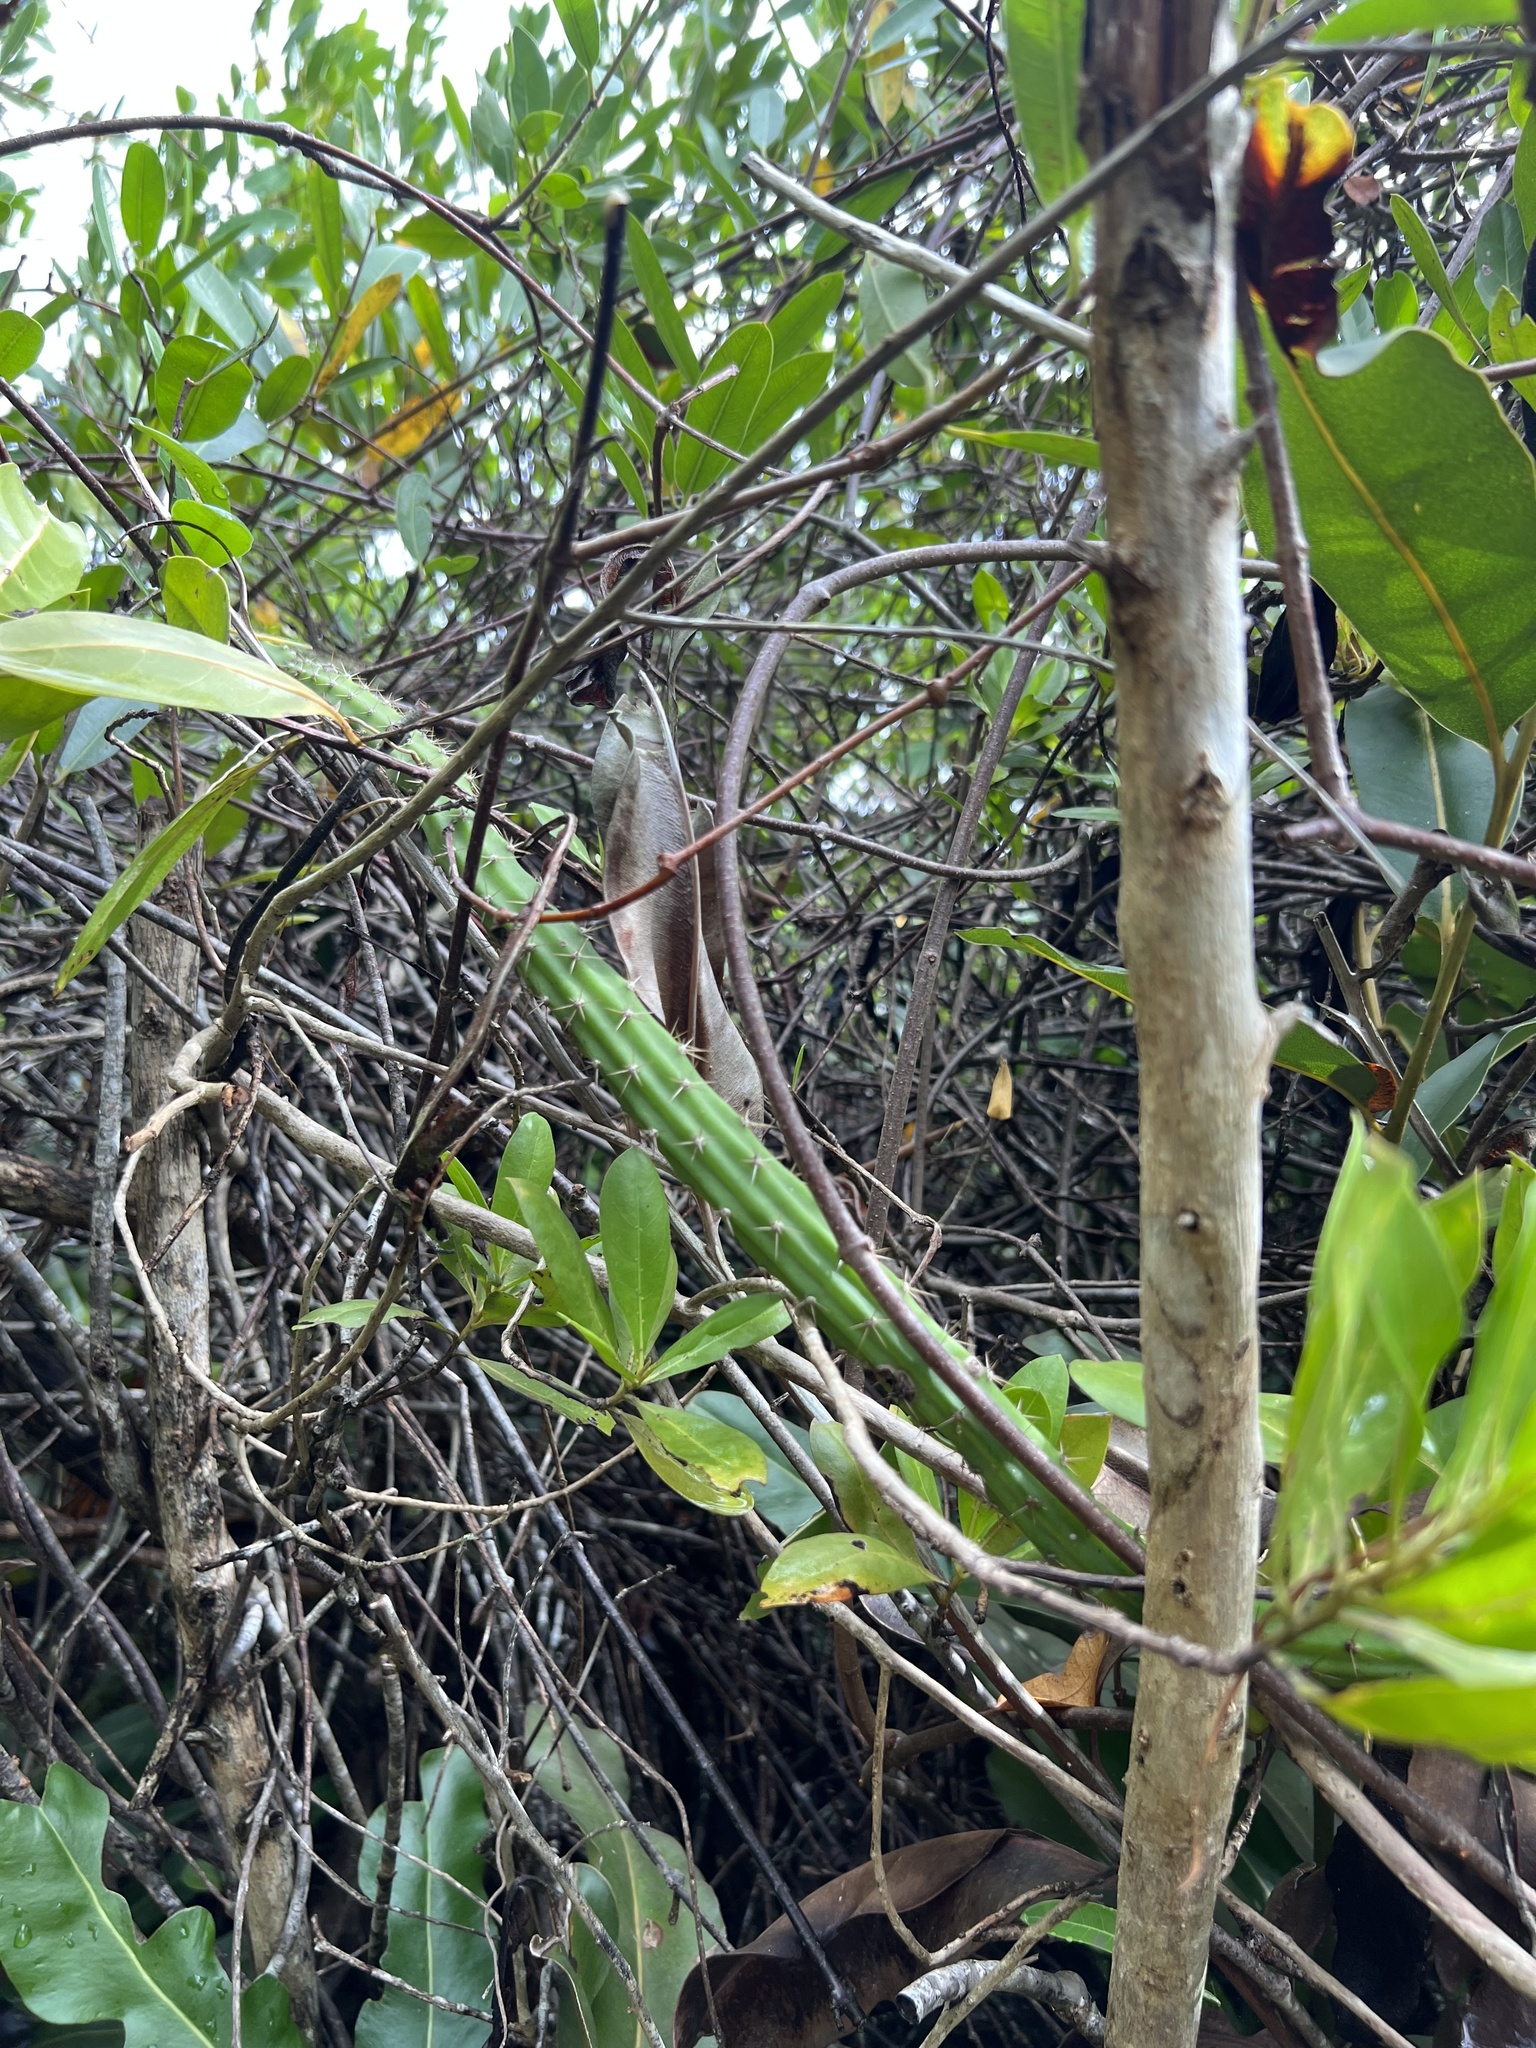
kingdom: Plantae
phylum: Tracheophyta
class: Magnoliopsida
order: Caryophyllales
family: Cactaceae
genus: Selenicereus
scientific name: Selenicereus grandiflorus
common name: Queen of the night
